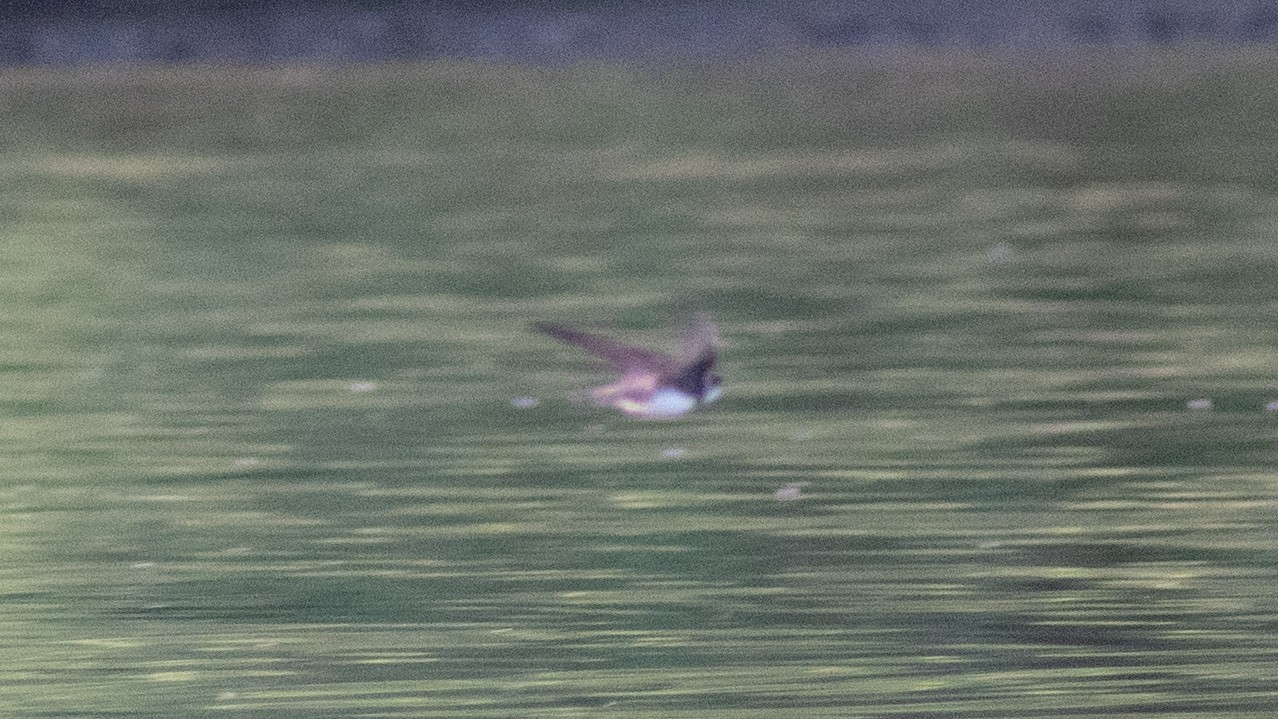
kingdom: Animalia
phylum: Chordata
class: Aves
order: Passeriformes
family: Hirundinidae
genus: Riparia
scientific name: Riparia riparia
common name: Sand martin
